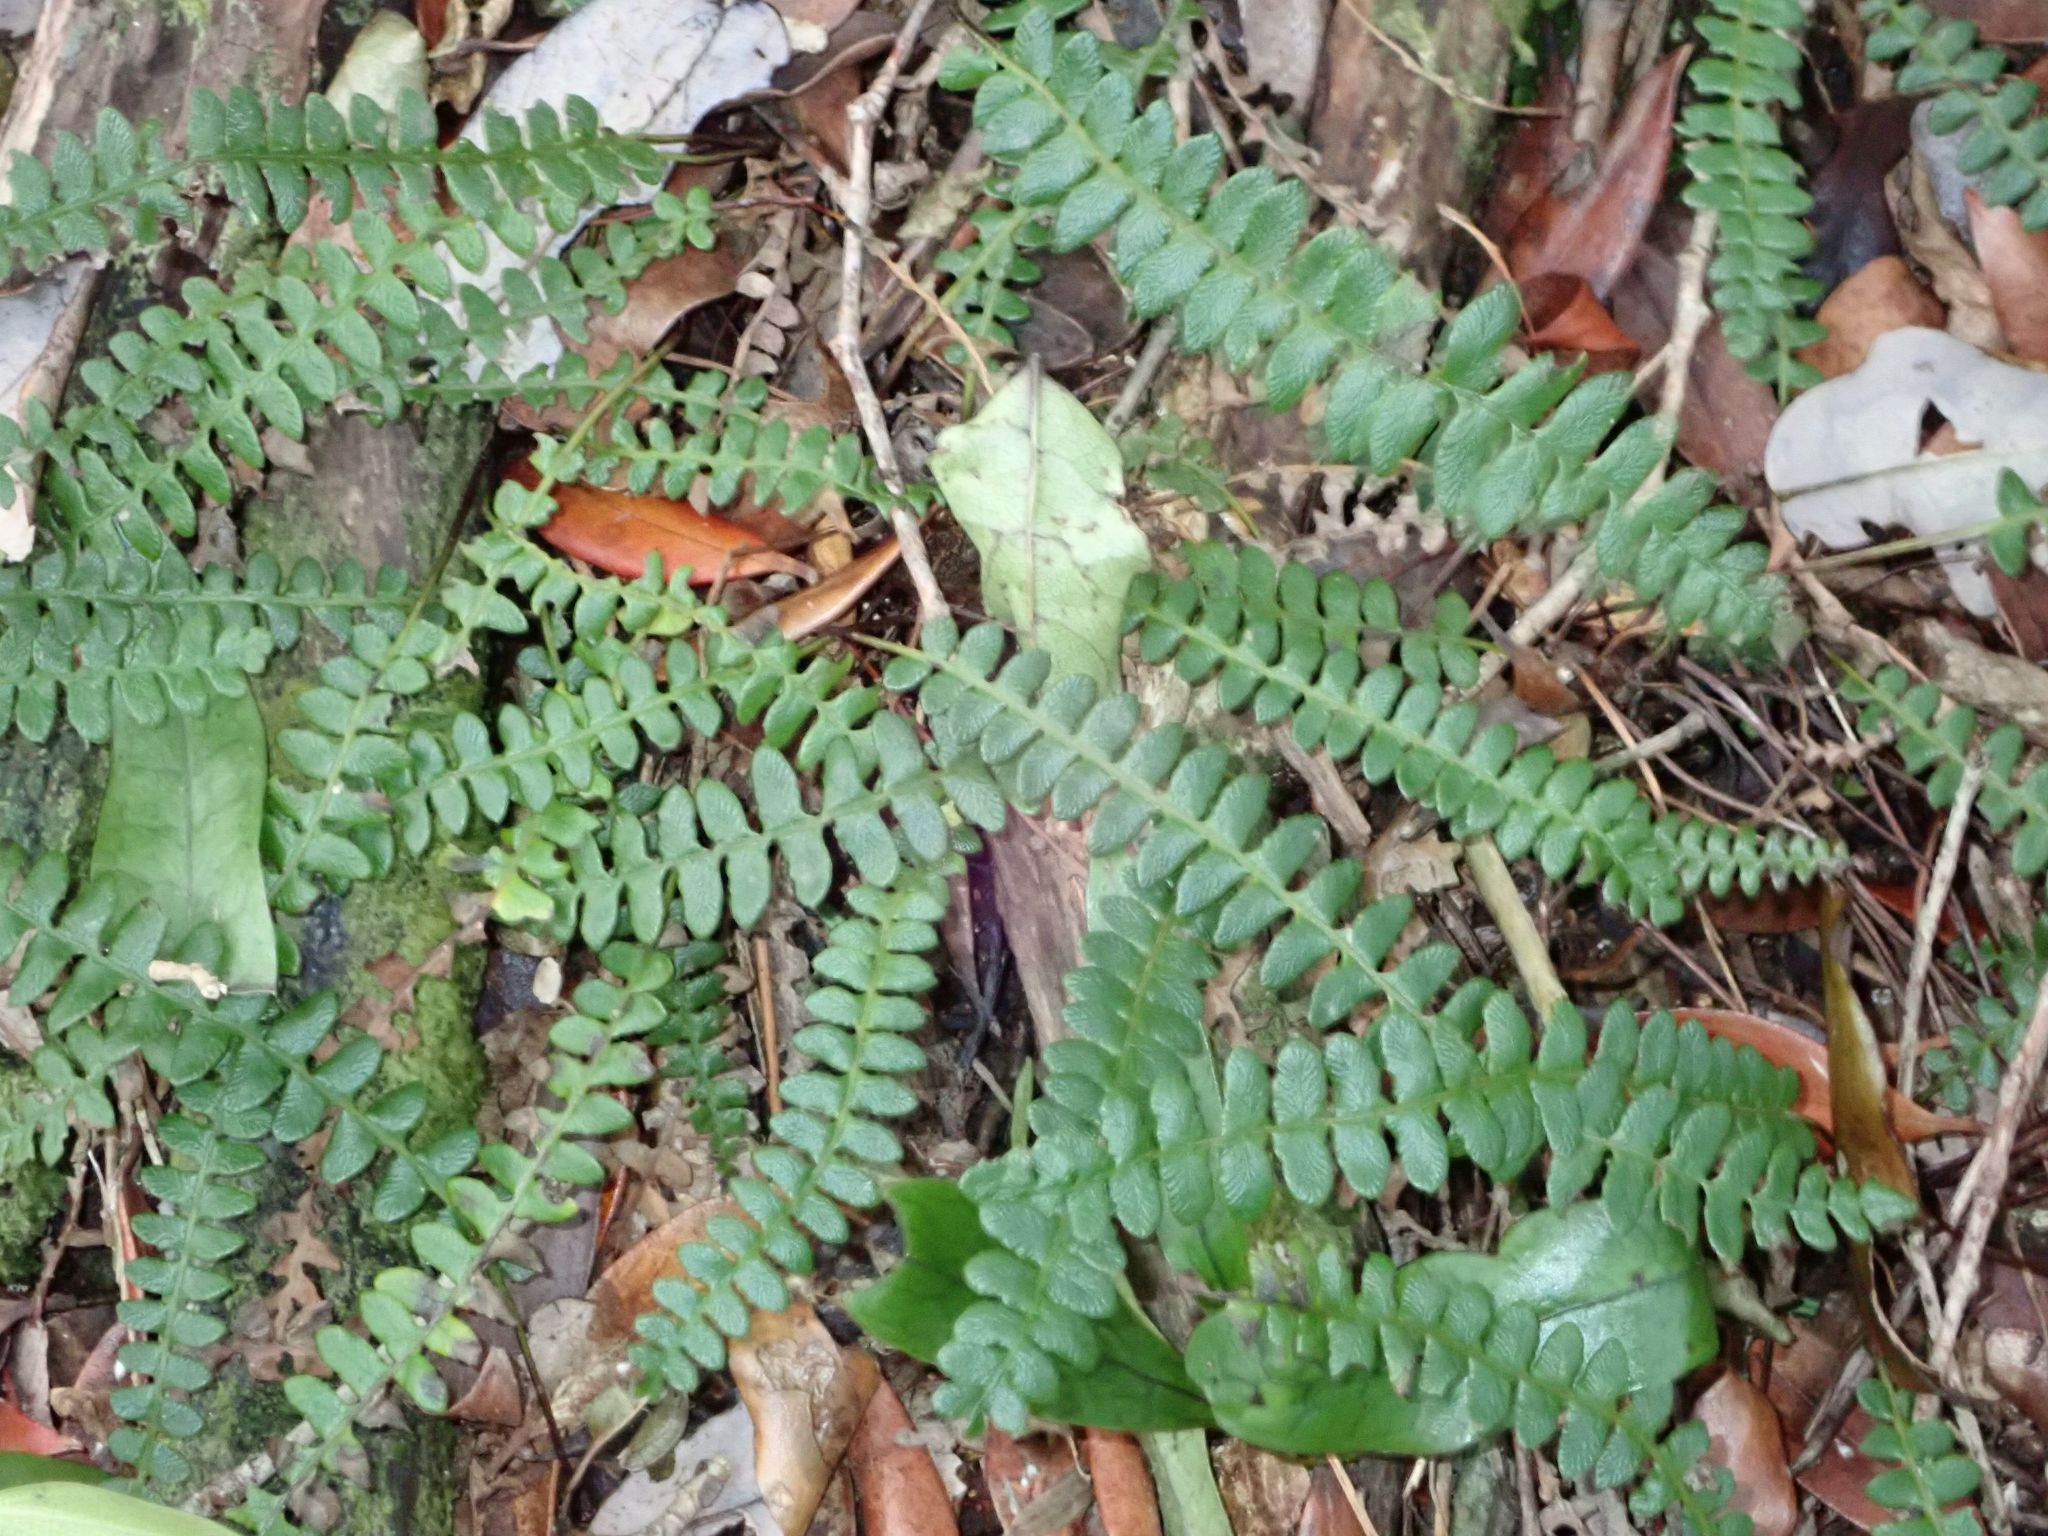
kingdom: Plantae
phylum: Tracheophyta
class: Polypodiopsida
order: Polypodiales
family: Blechnaceae
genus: Austroblechnum
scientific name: Austroblechnum penna-marina
